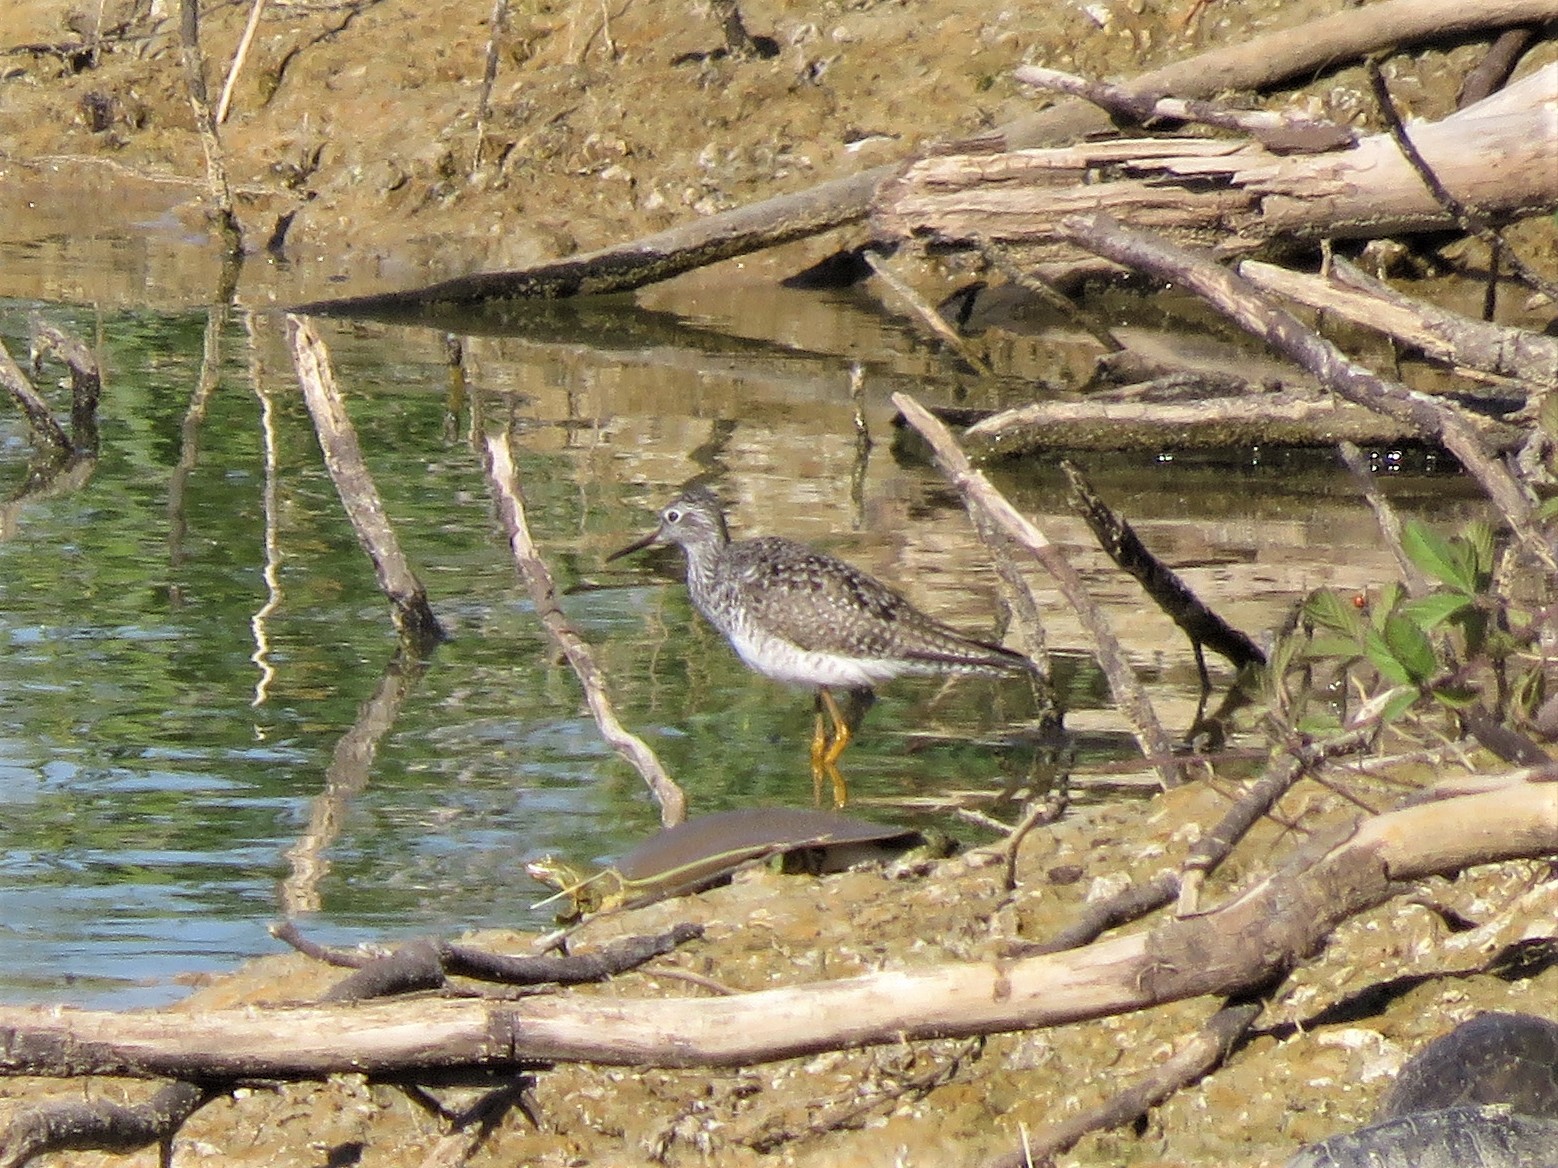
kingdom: Animalia
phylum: Chordata
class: Aves
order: Charadriiformes
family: Scolopacidae
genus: Tringa
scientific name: Tringa melanoleuca
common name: Greater yellowlegs
